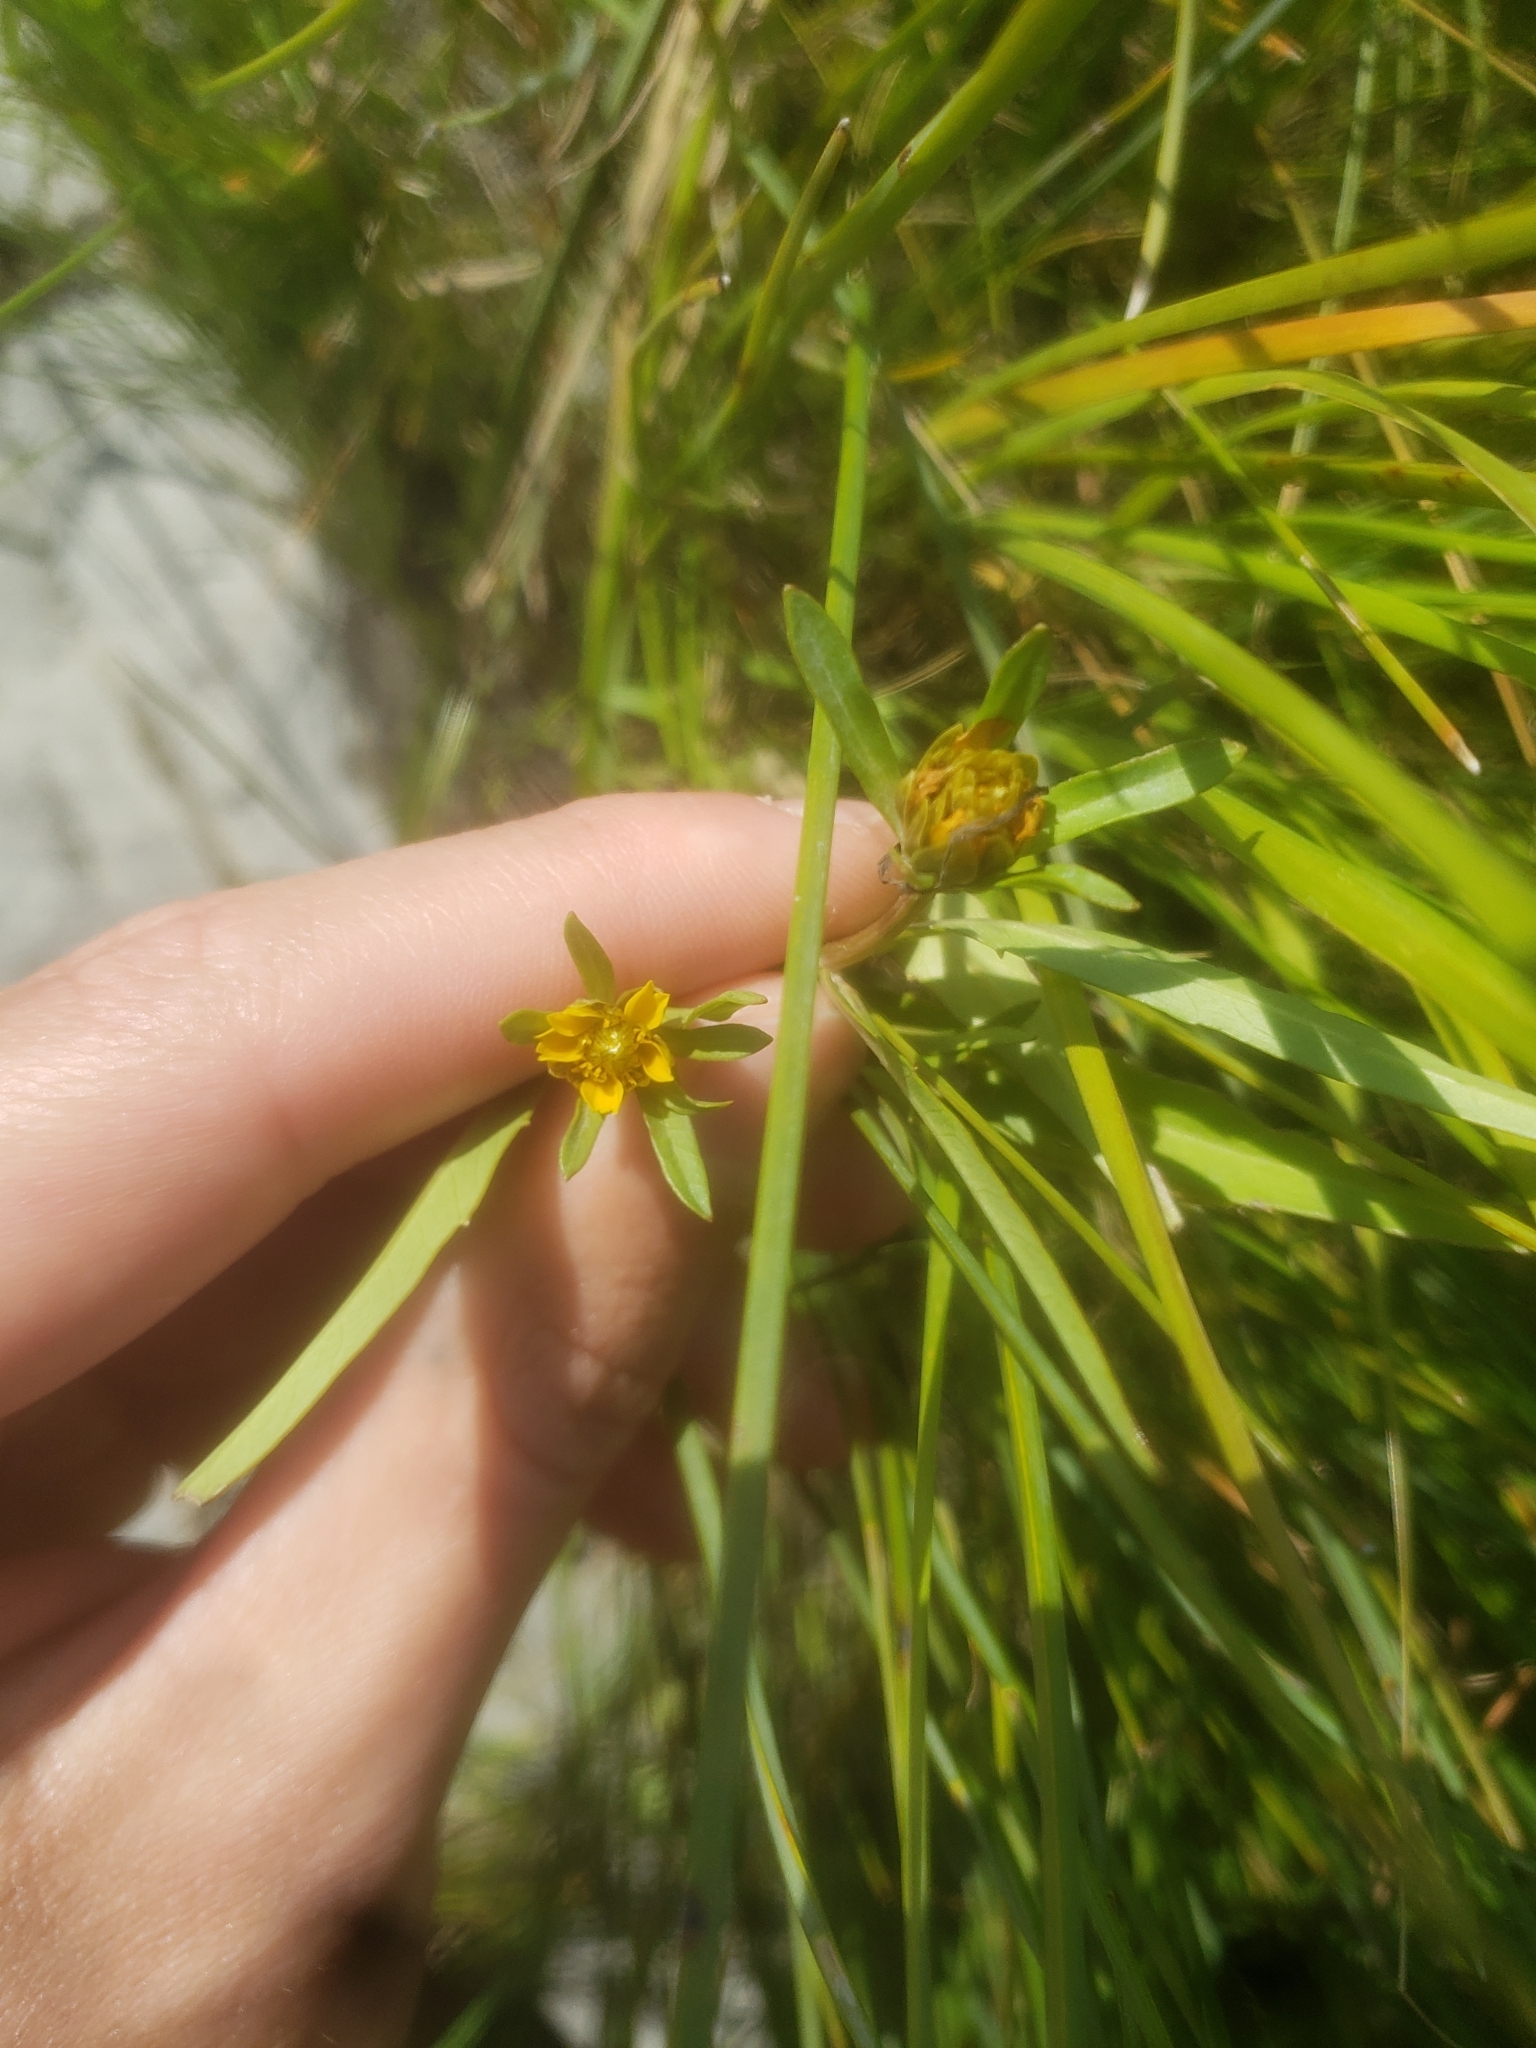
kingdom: Plantae
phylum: Tracheophyta
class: Magnoliopsida
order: Asterales
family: Asteraceae
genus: Bidens
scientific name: Bidens hyperborea
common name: Coastal beggarticks
